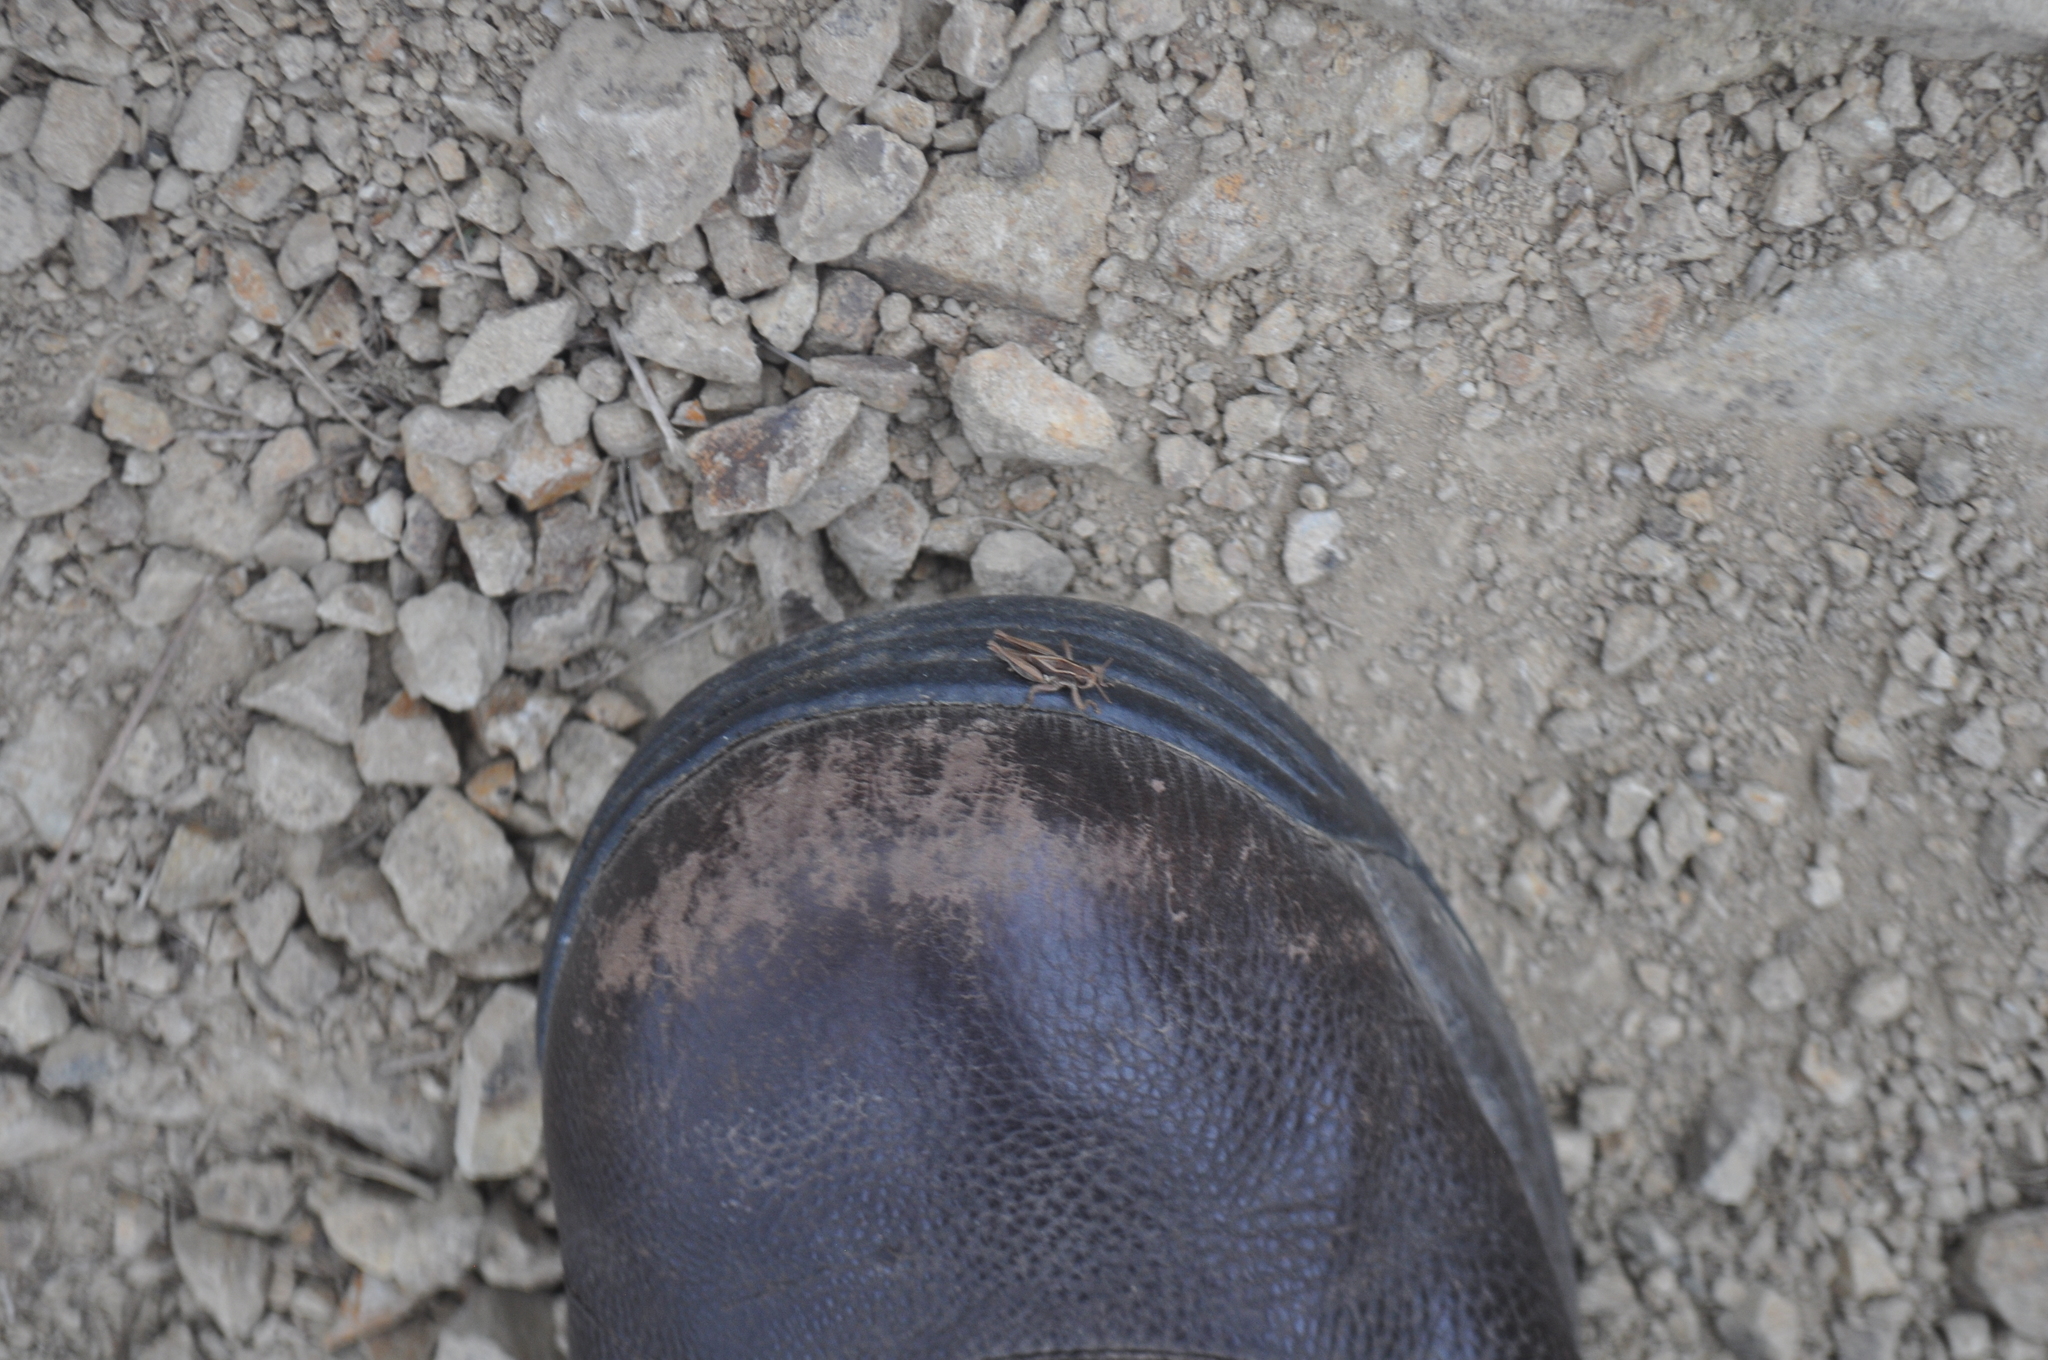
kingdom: Animalia
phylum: Arthropoda
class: Insecta
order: Orthoptera
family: Acrididae
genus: Phaulacridium
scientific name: Phaulacridium marginale
